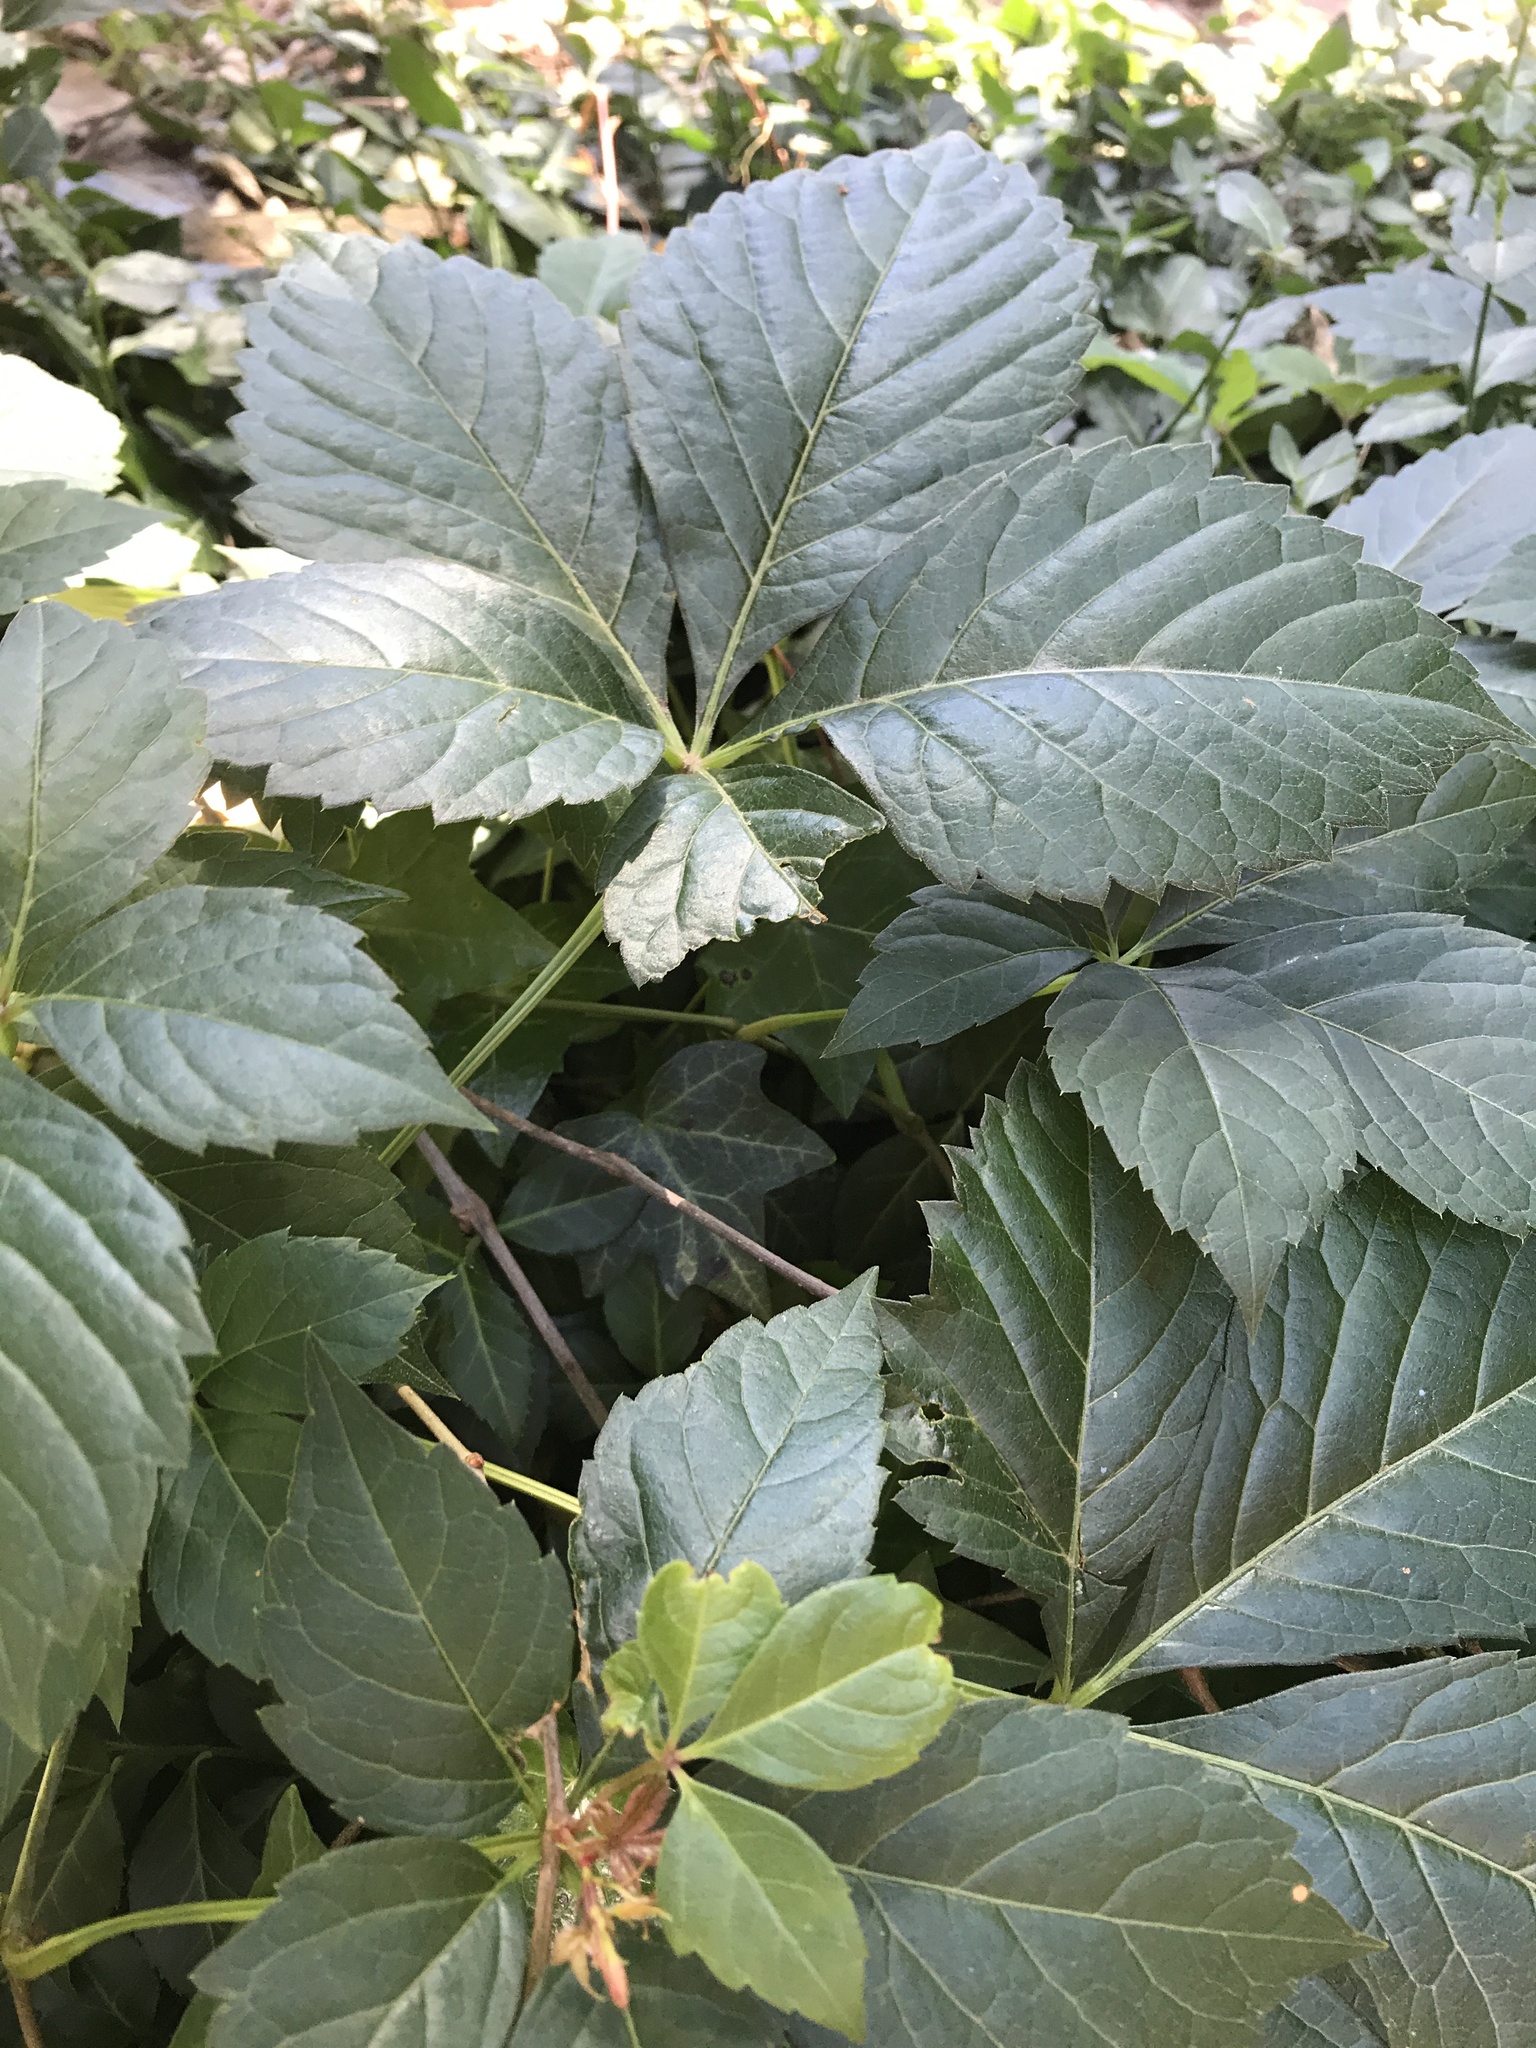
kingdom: Plantae
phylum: Tracheophyta
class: Magnoliopsida
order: Vitales
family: Vitaceae
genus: Parthenocissus
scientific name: Parthenocissus inserta
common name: False virginia-creeper
